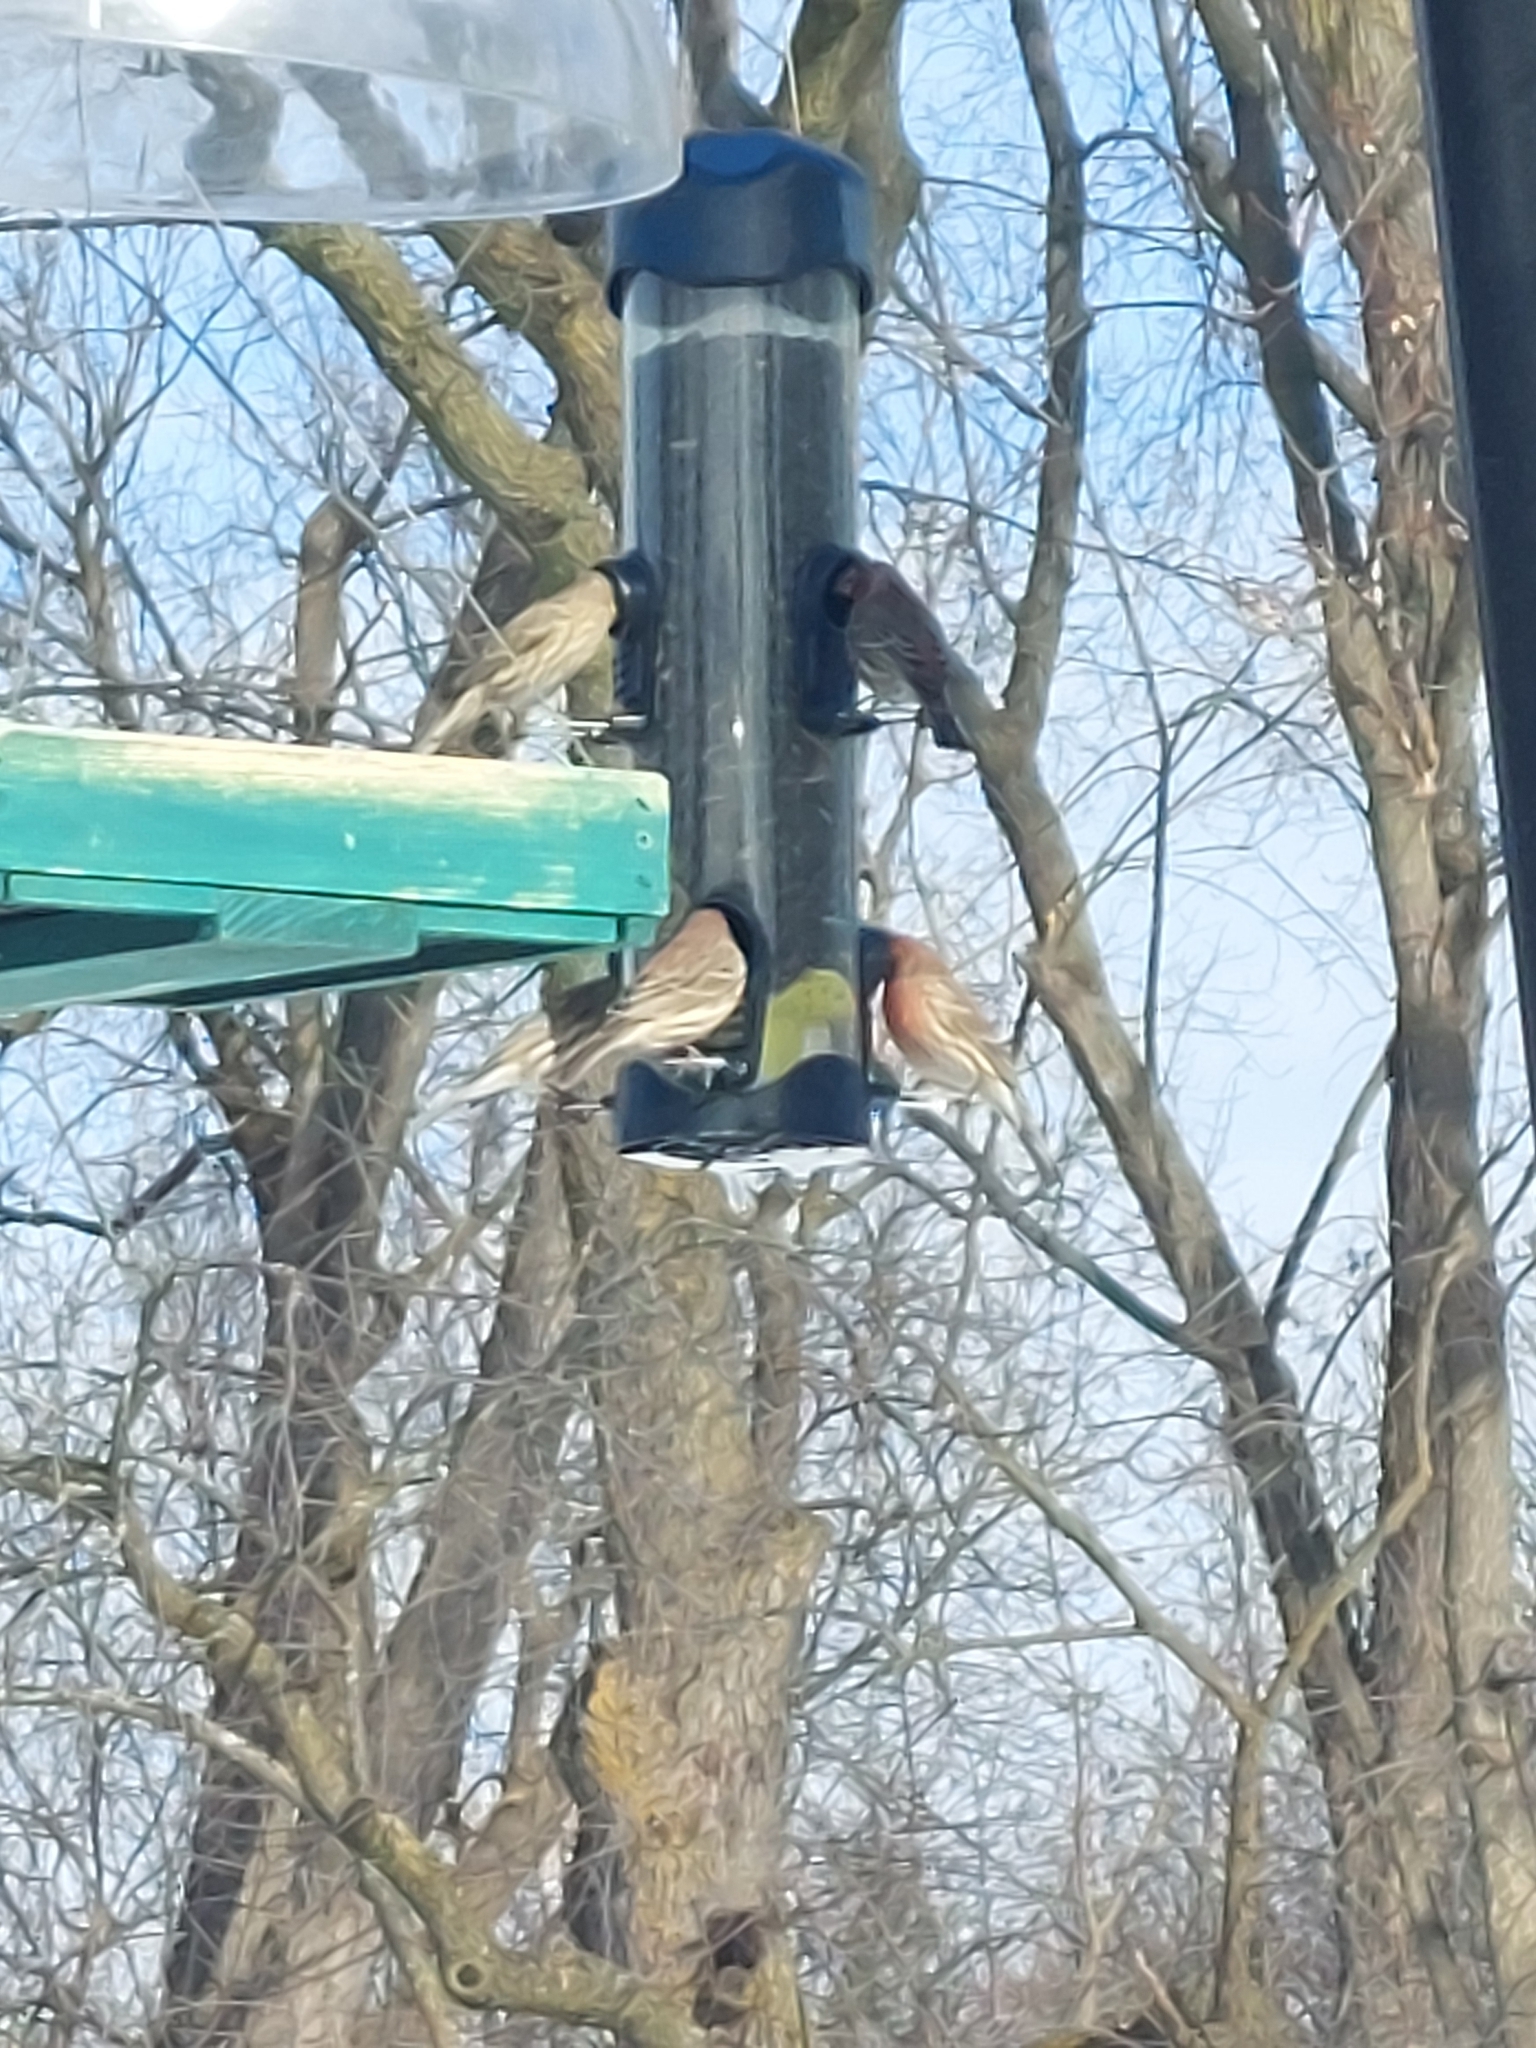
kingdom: Animalia
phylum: Chordata
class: Aves
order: Passeriformes
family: Fringillidae
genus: Haemorhous
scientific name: Haemorhous mexicanus
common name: House finch
